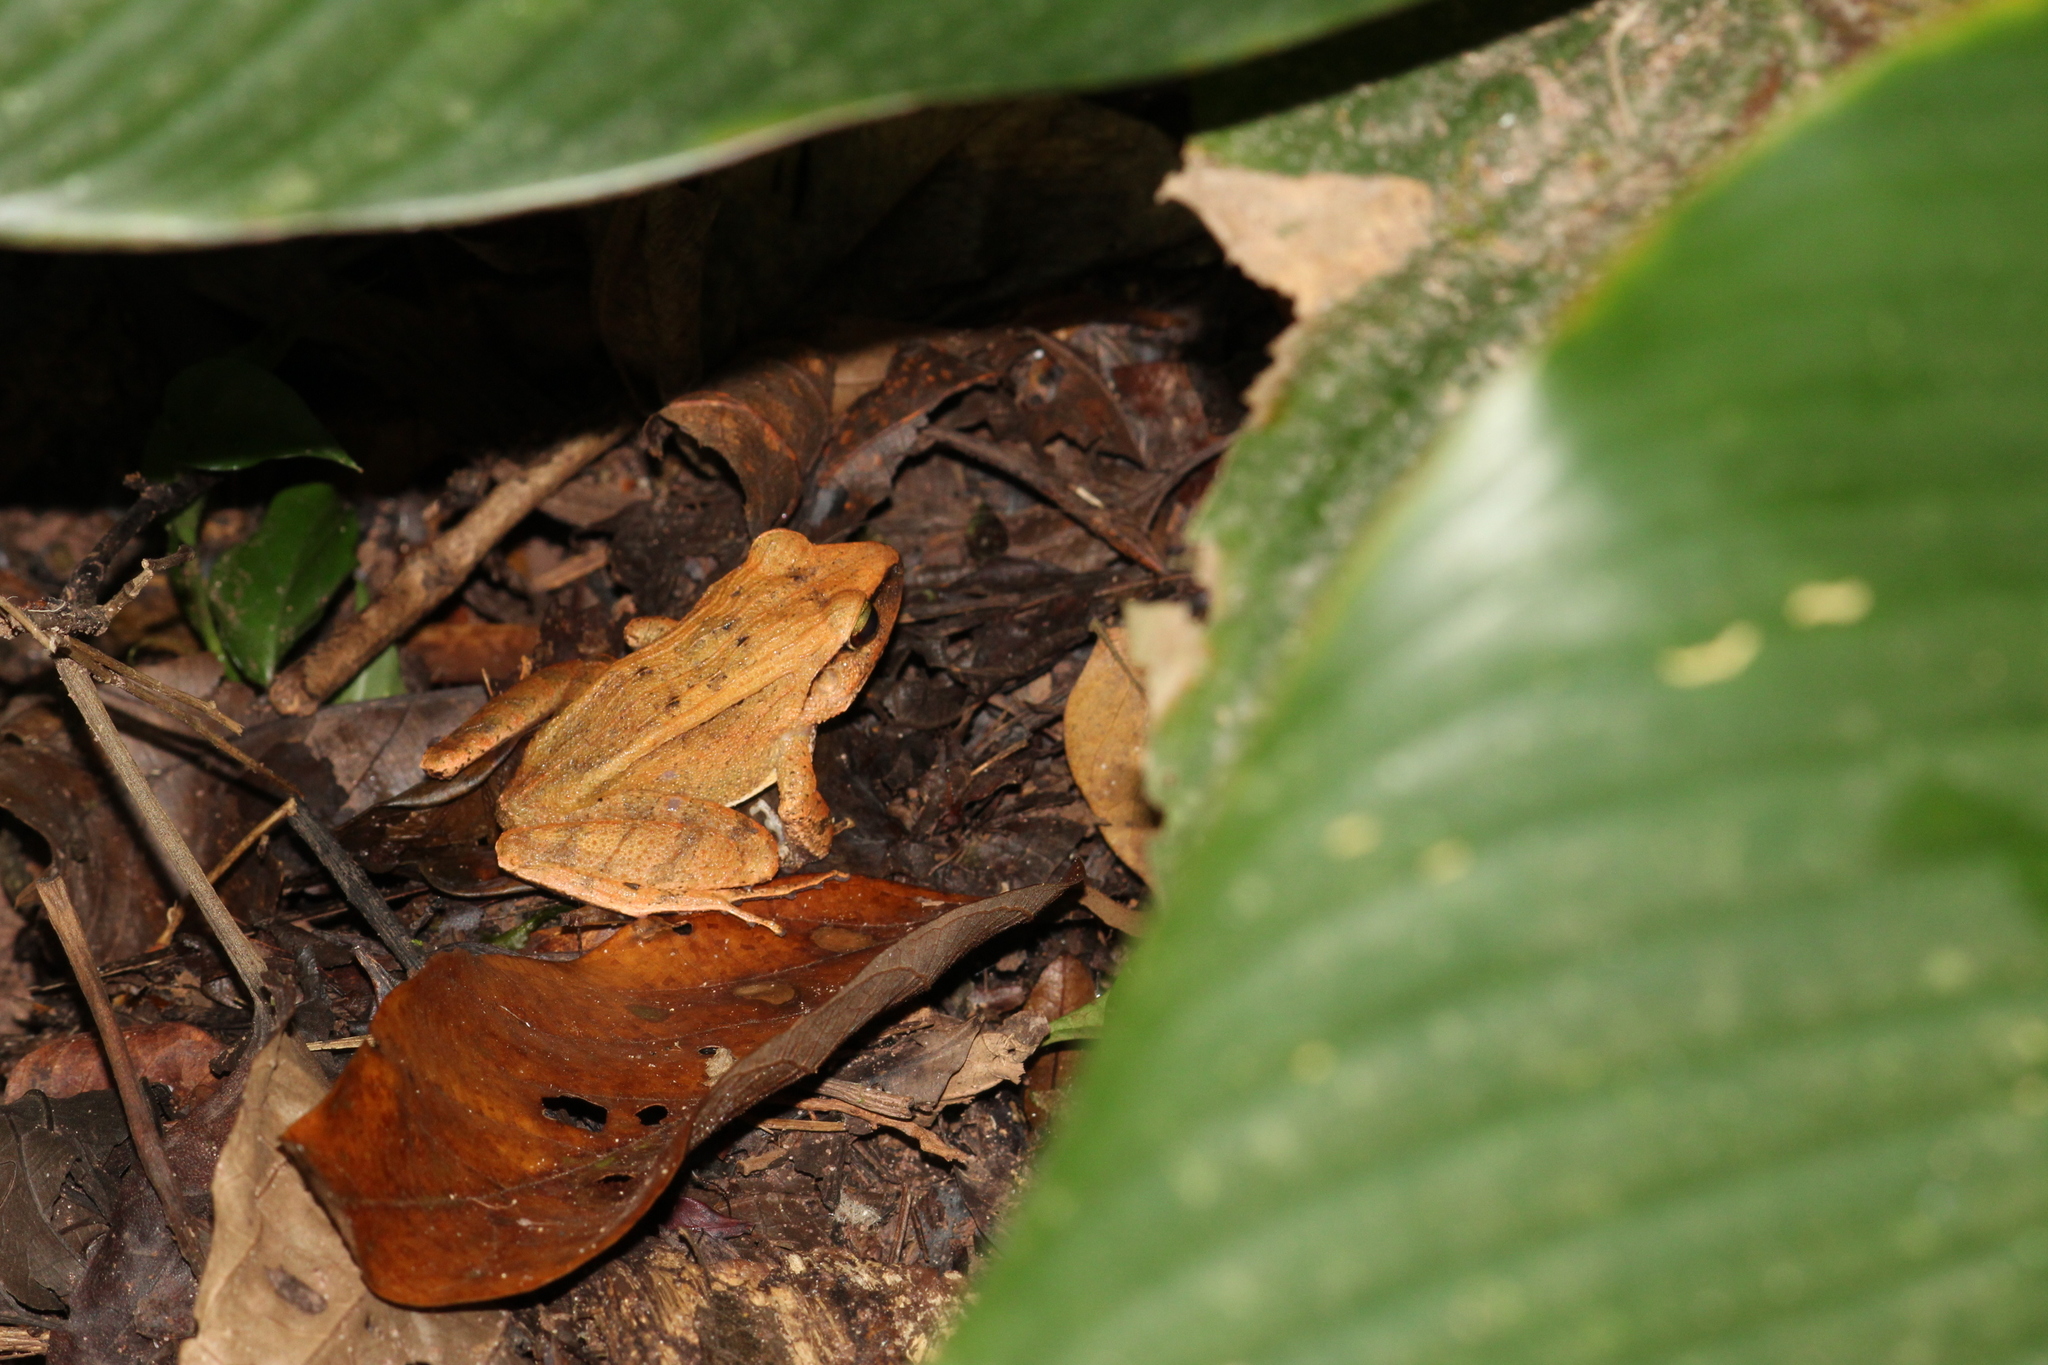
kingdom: Animalia
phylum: Chordata
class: Amphibia
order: Anura
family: Craugastoridae
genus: Haddadus
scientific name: Haddadus binotatus
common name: Clay robber frog
